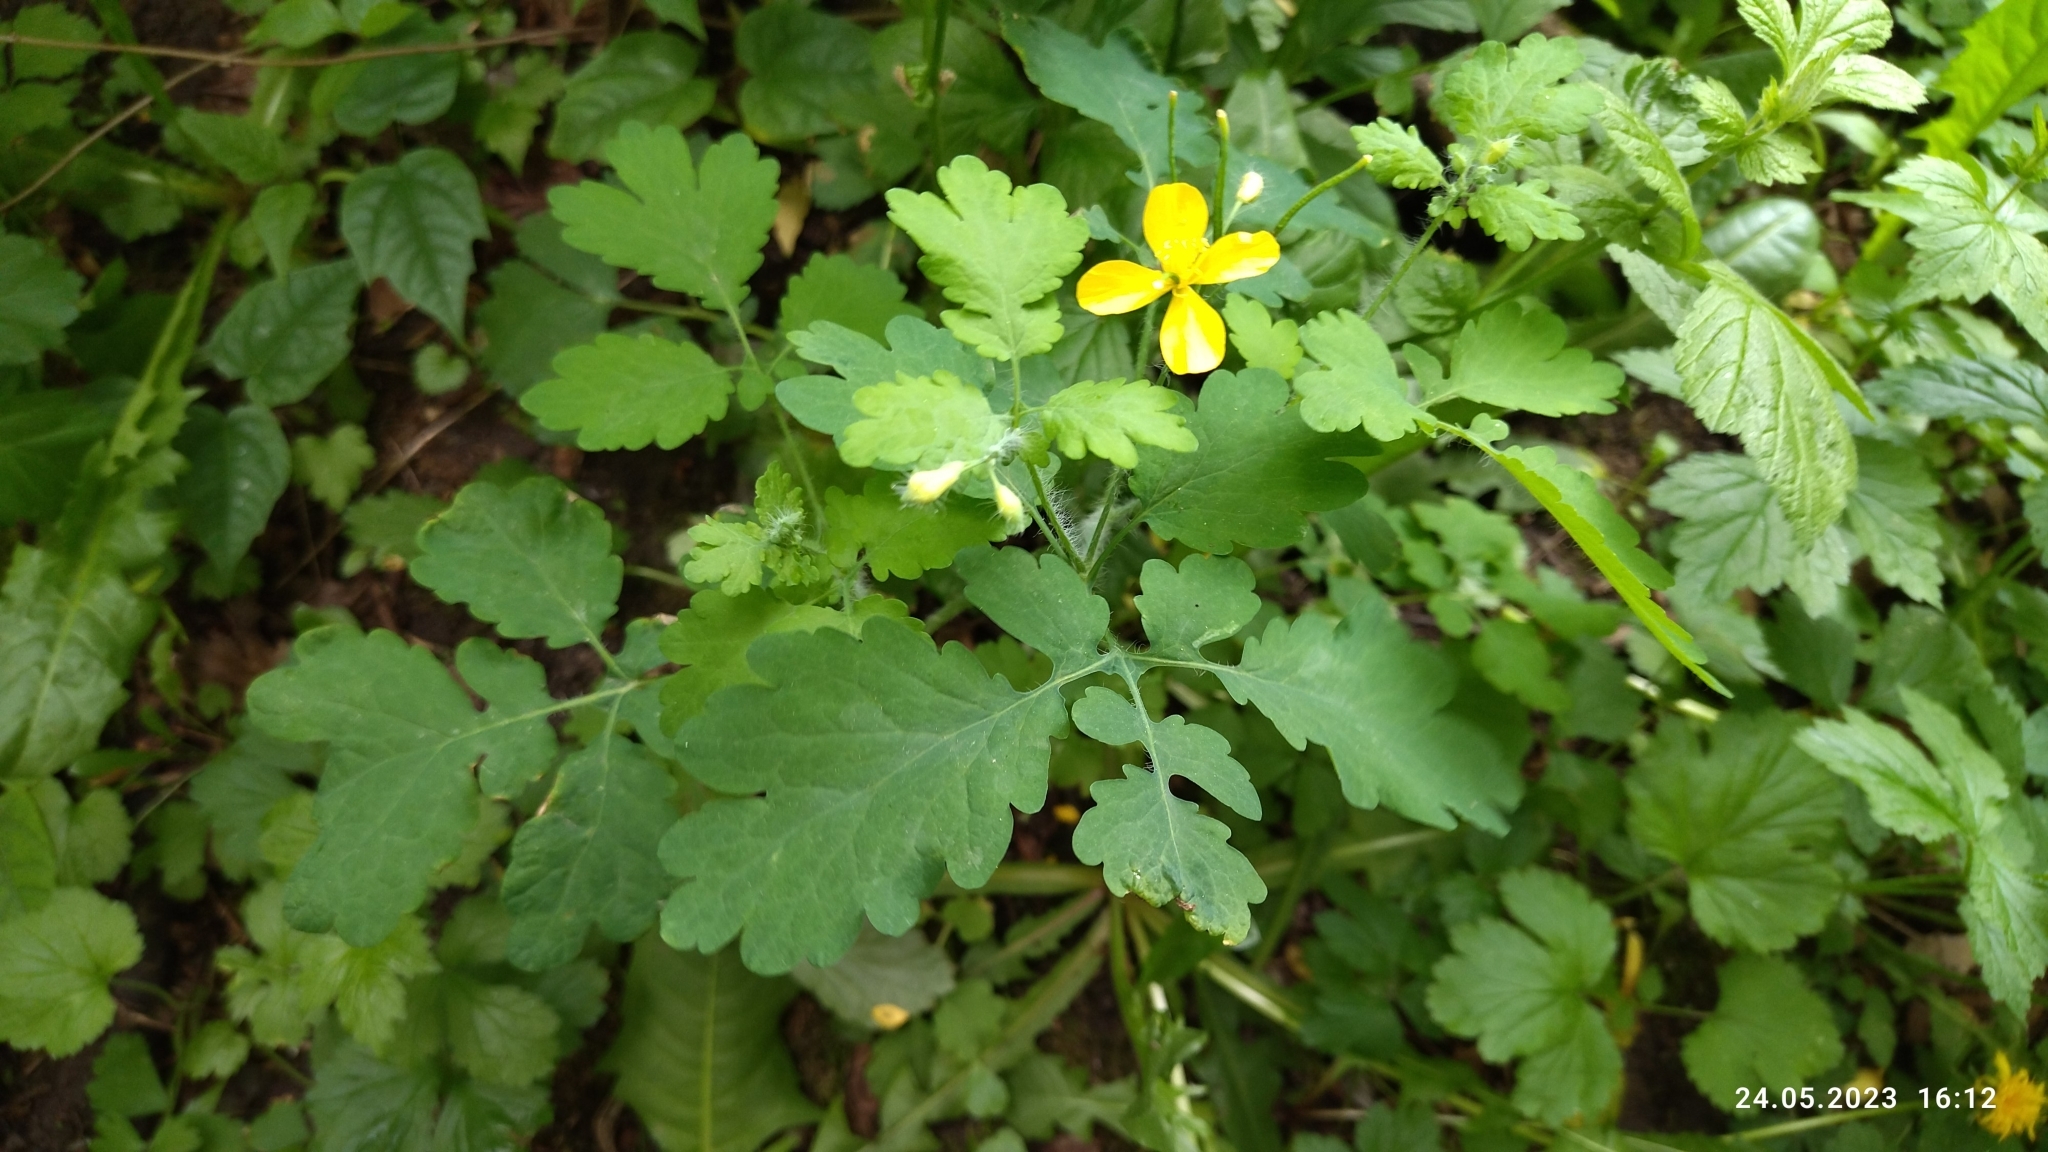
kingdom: Plantae
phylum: Tracheophyta
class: Magnoliopsida
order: Ranunculales
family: Papaveraceae
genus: Chelidonium
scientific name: Chelidonium majus
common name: Greater celandine
